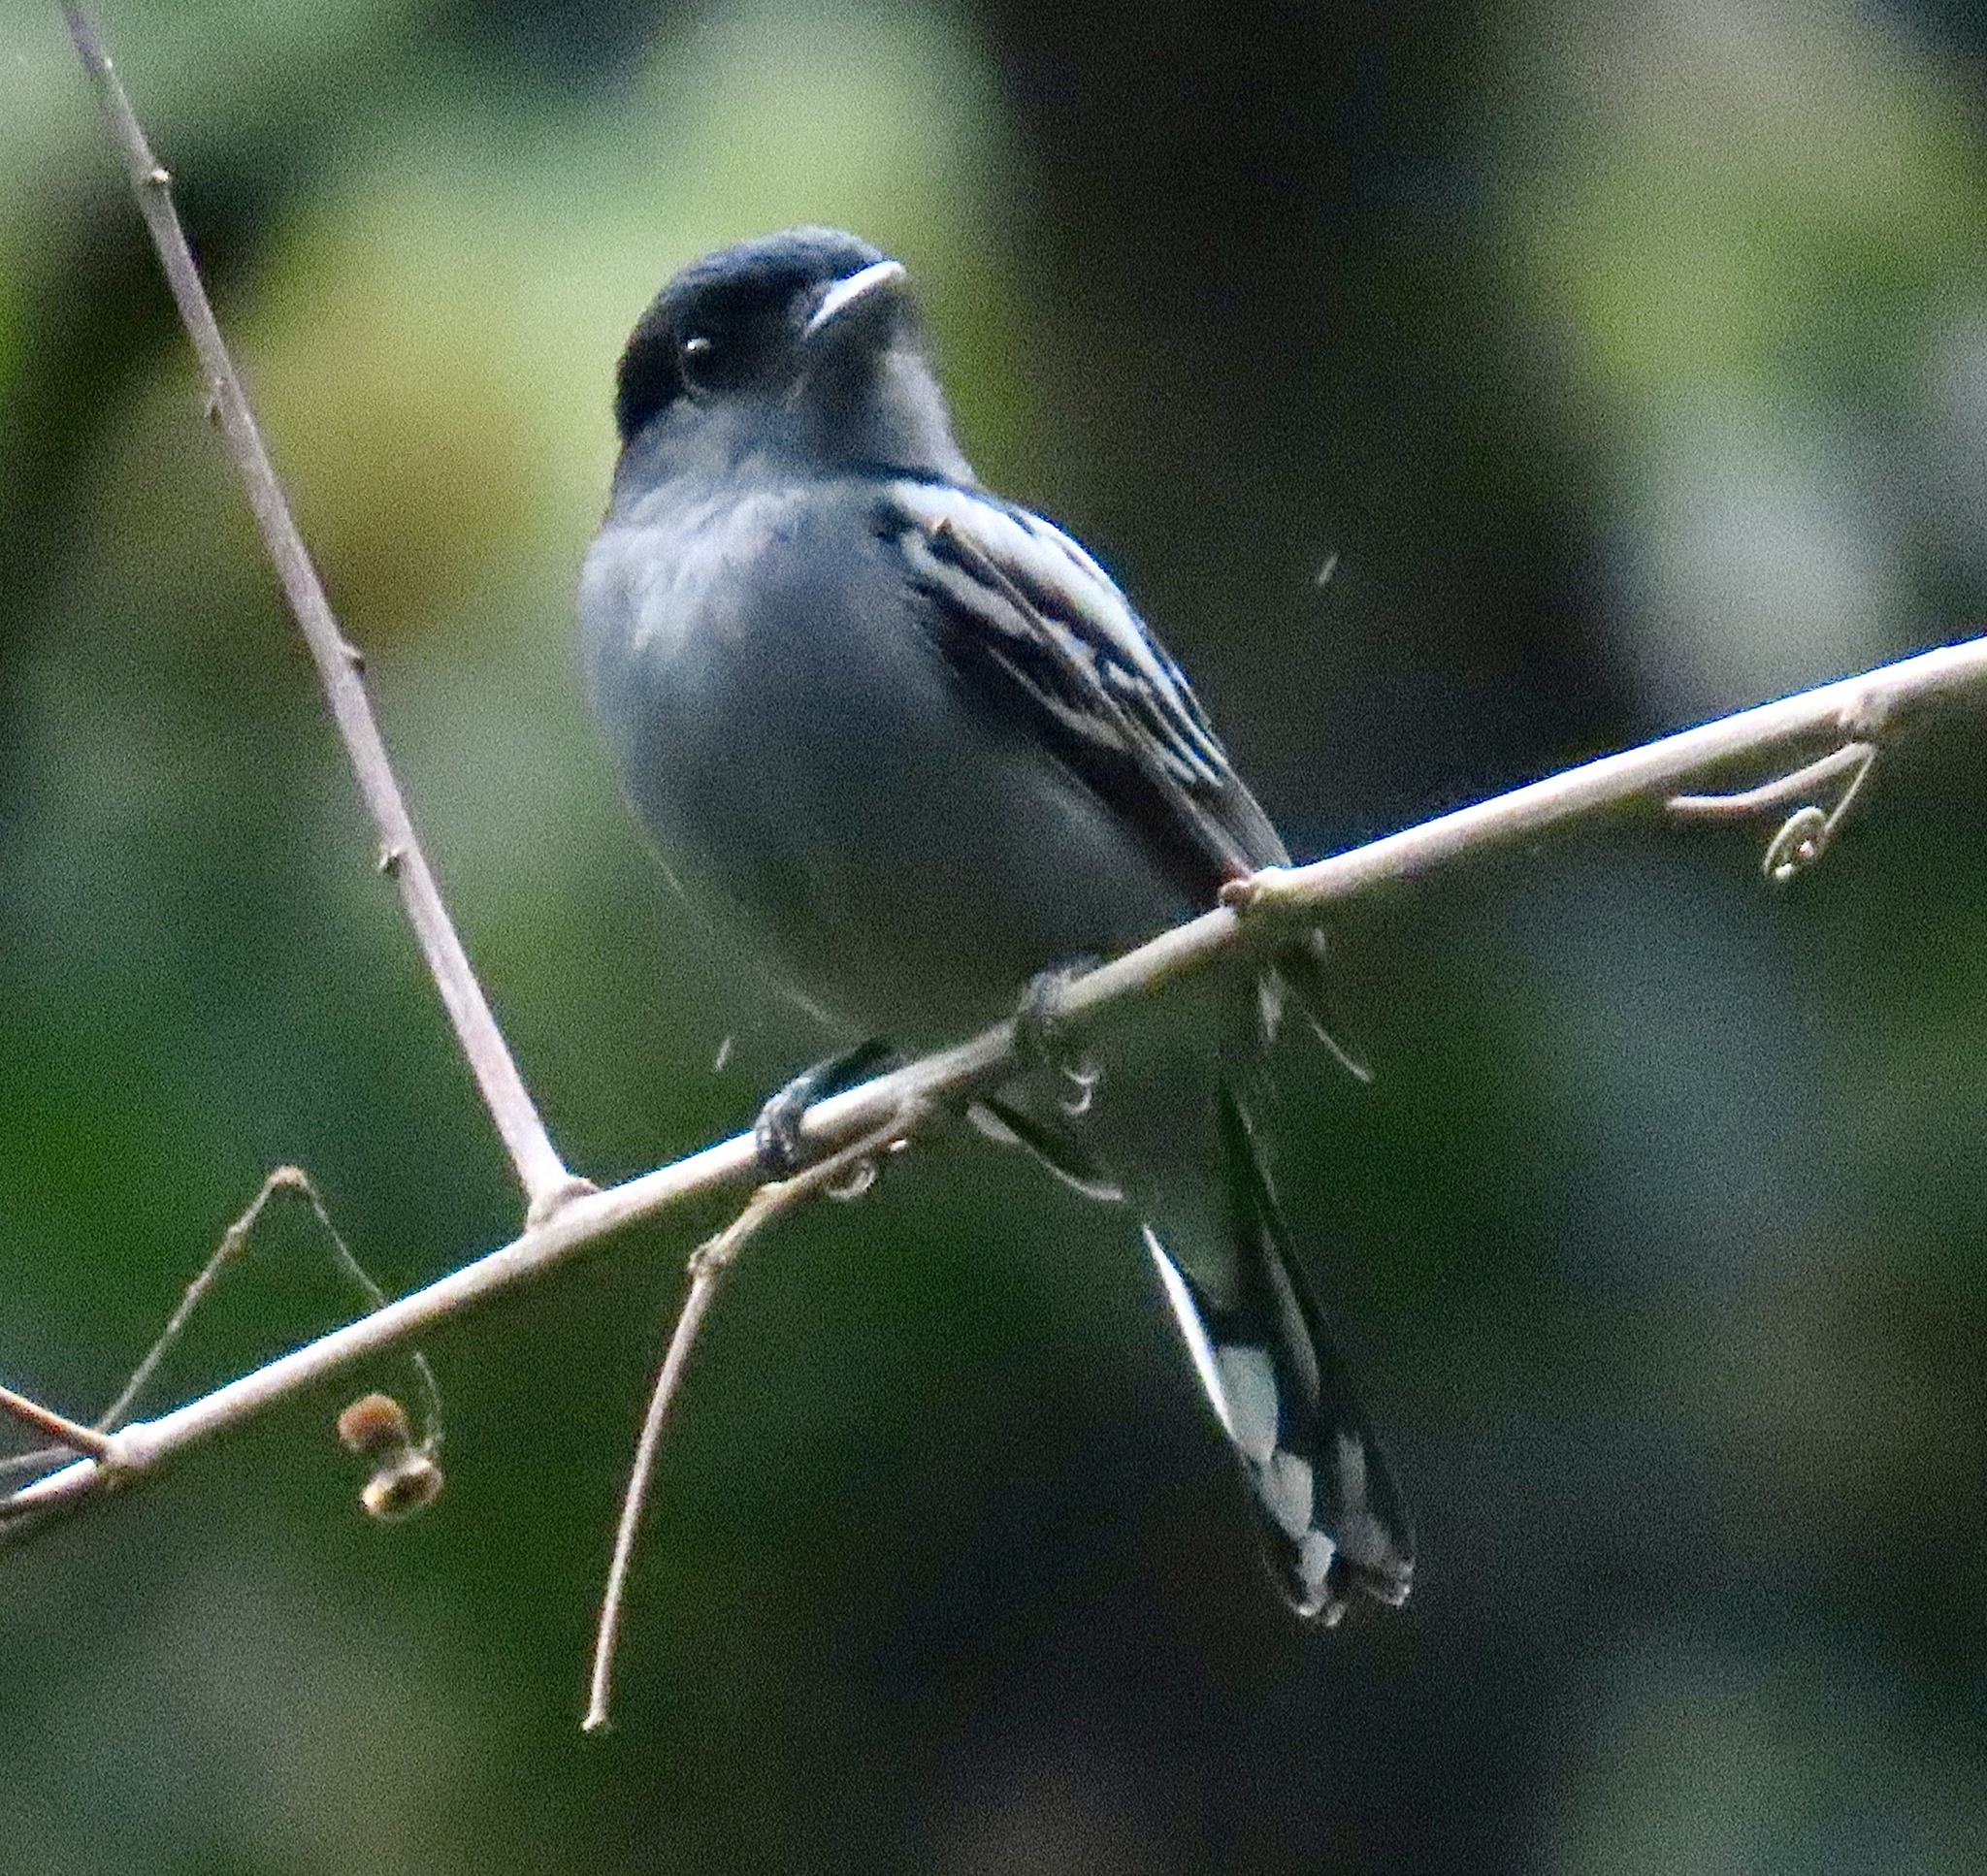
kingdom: Animalia
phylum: Chordata
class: Aves
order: Passeriformes
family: Cotingidae
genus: Pachyramphus
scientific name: Pachyramphus polychopterus
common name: White-winged becard
